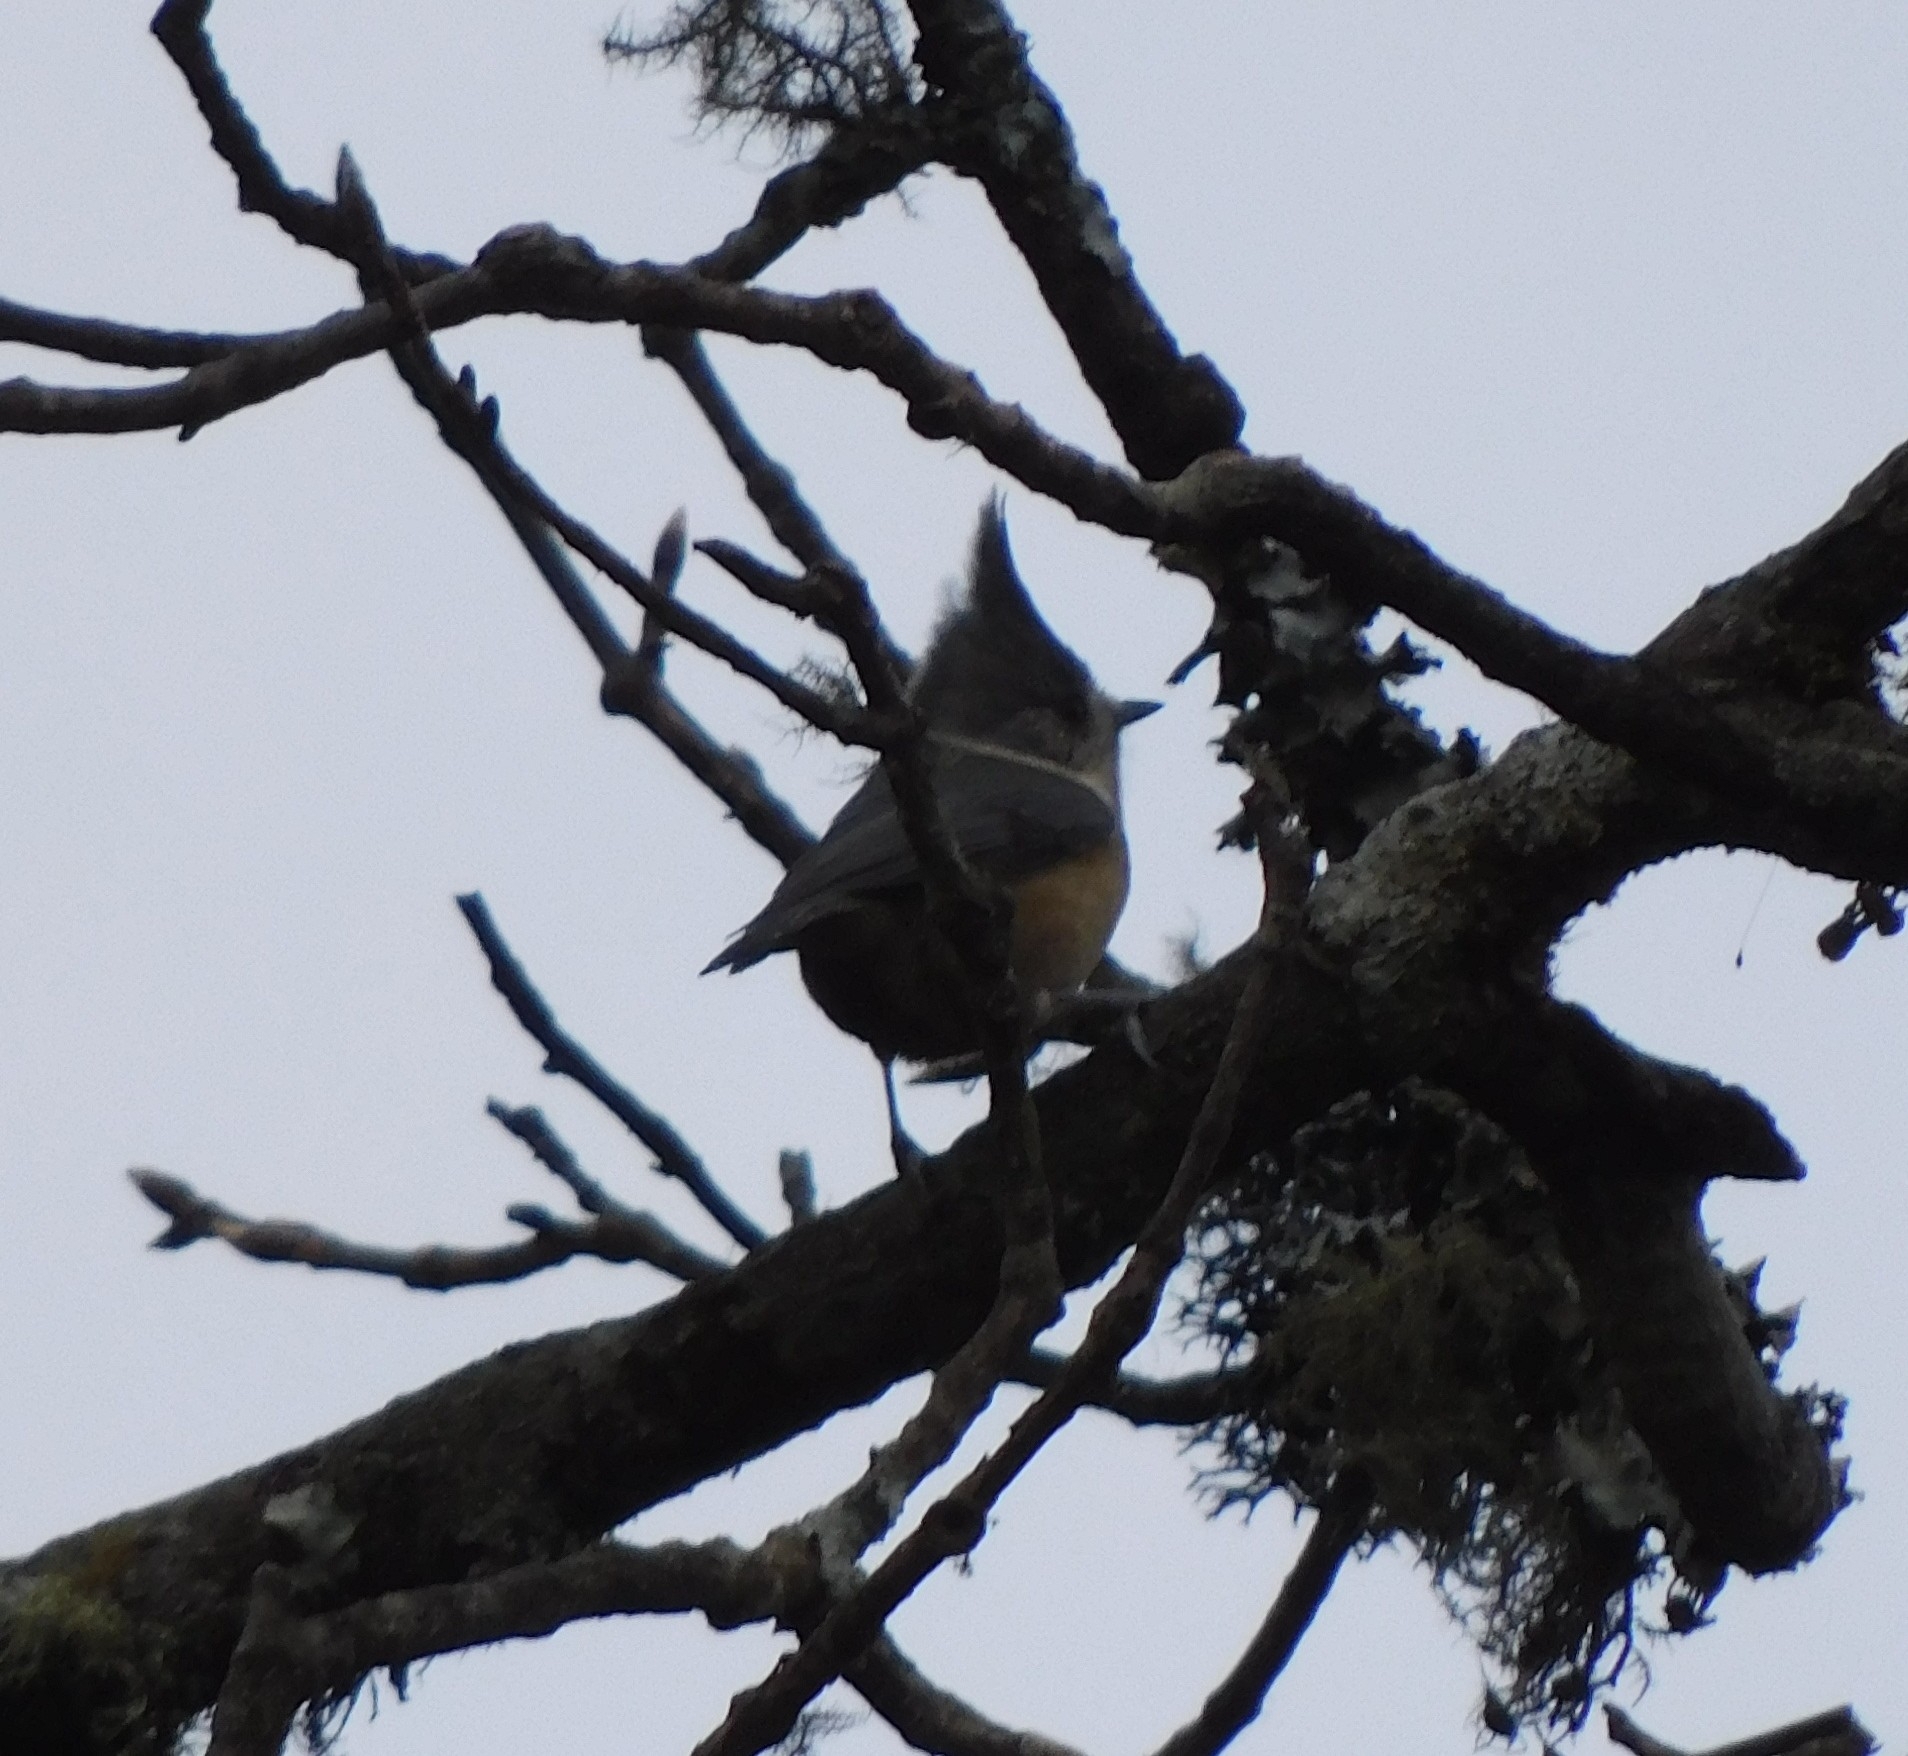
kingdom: Animalia
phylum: Chordata
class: Aves
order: Passeriformes
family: Paridae
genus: Lophophanes
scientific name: Lophophanes dichrous
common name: Grey crested tit
